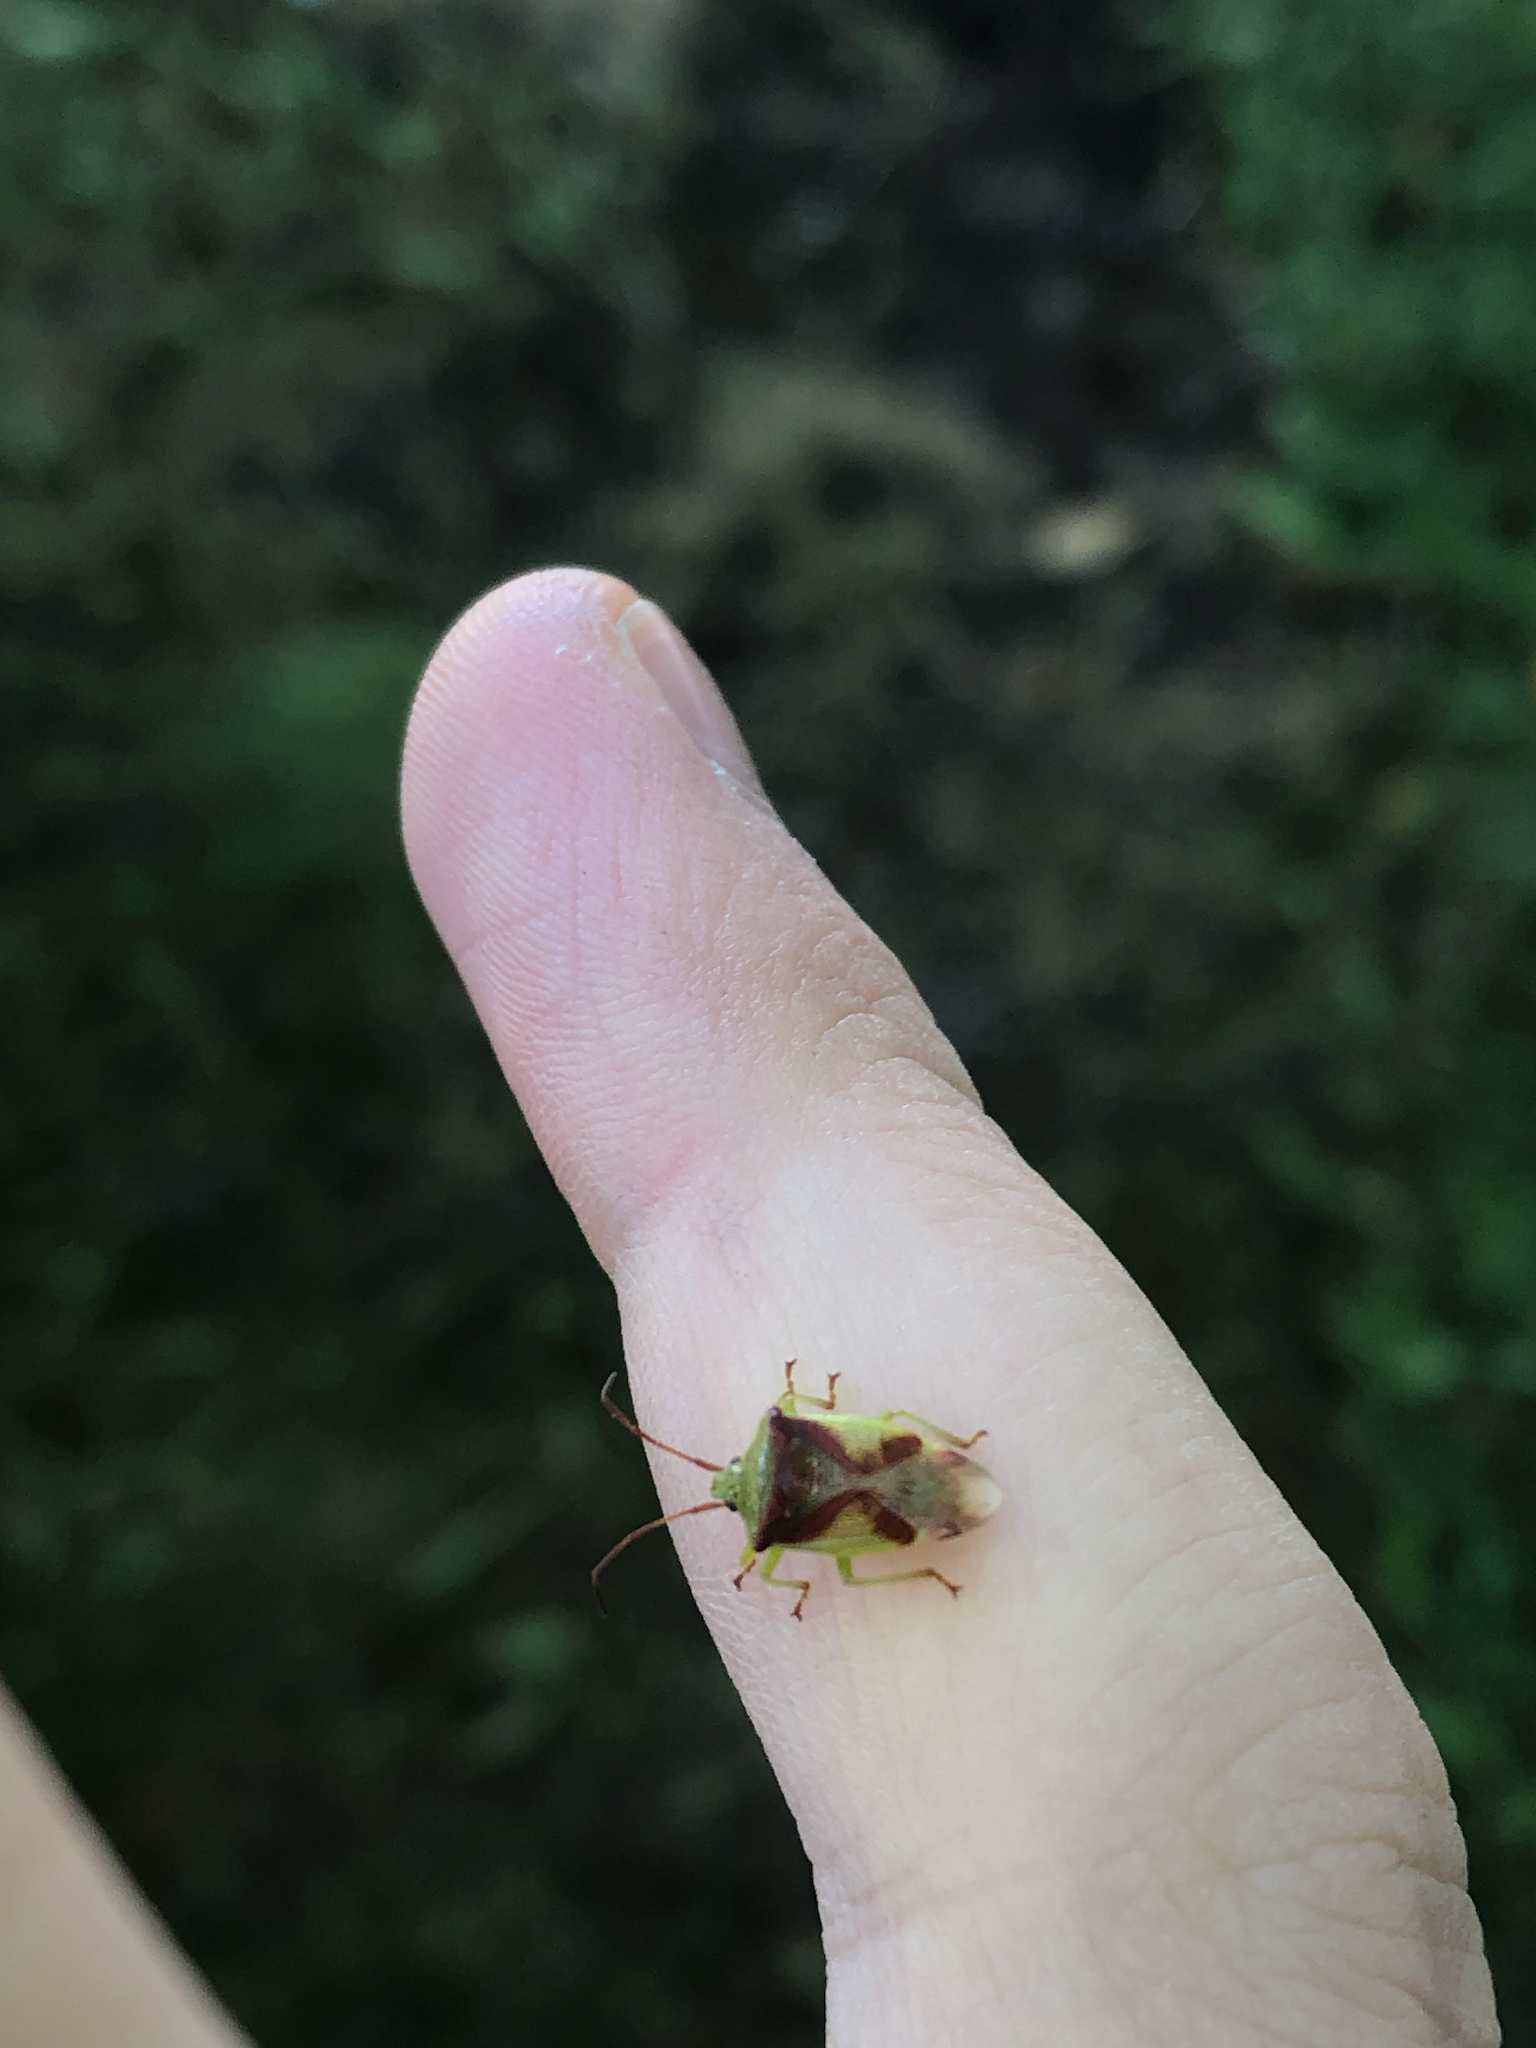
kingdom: Animalia
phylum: Arthropoda
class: Insecta
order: Hemiptera
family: Acanthosomatidae
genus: Elasmostethus
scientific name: Elasmostethus cruciatus
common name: Red-cross shield bug
